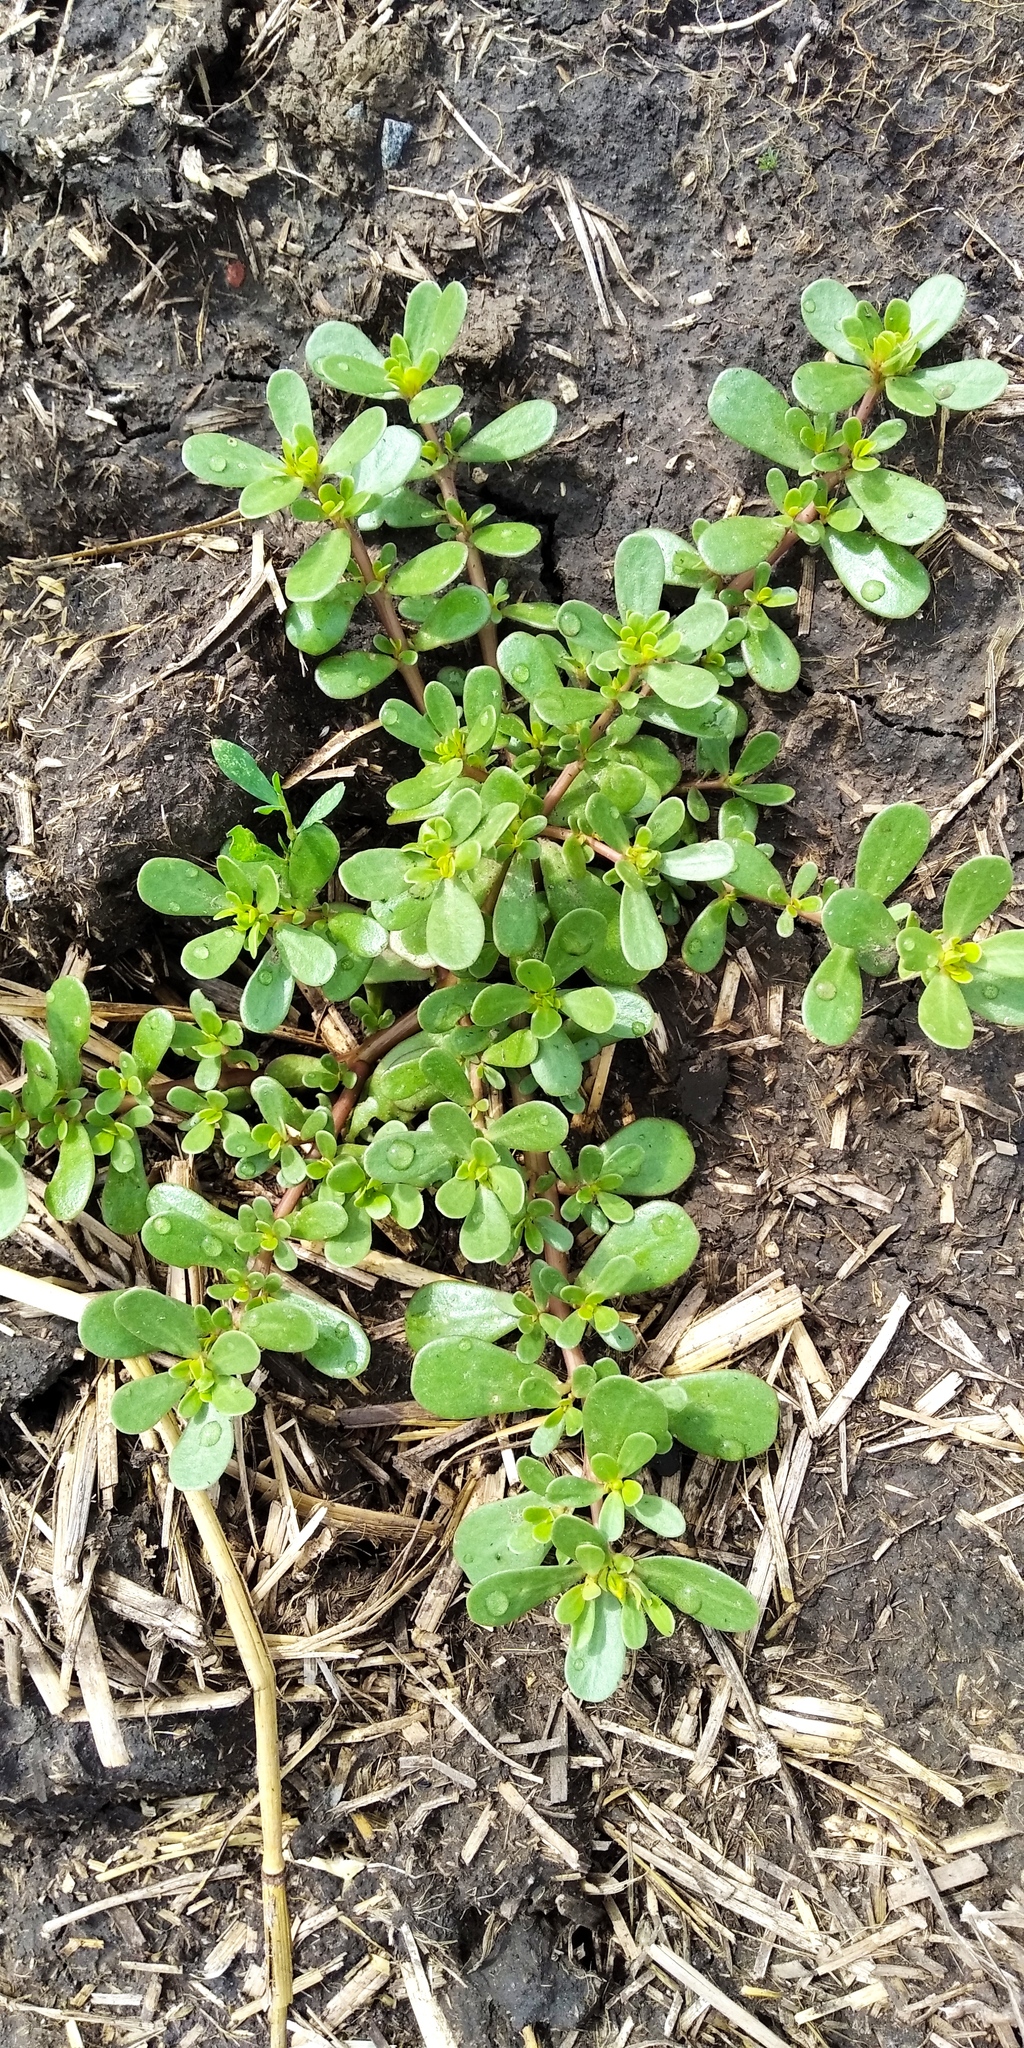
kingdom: Plantae
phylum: Tracheophyta
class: Magnoliopsida
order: Caryophyllales
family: Portulacaceae
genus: Portulaca
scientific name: Portulaca oleracea
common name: Common purslane
